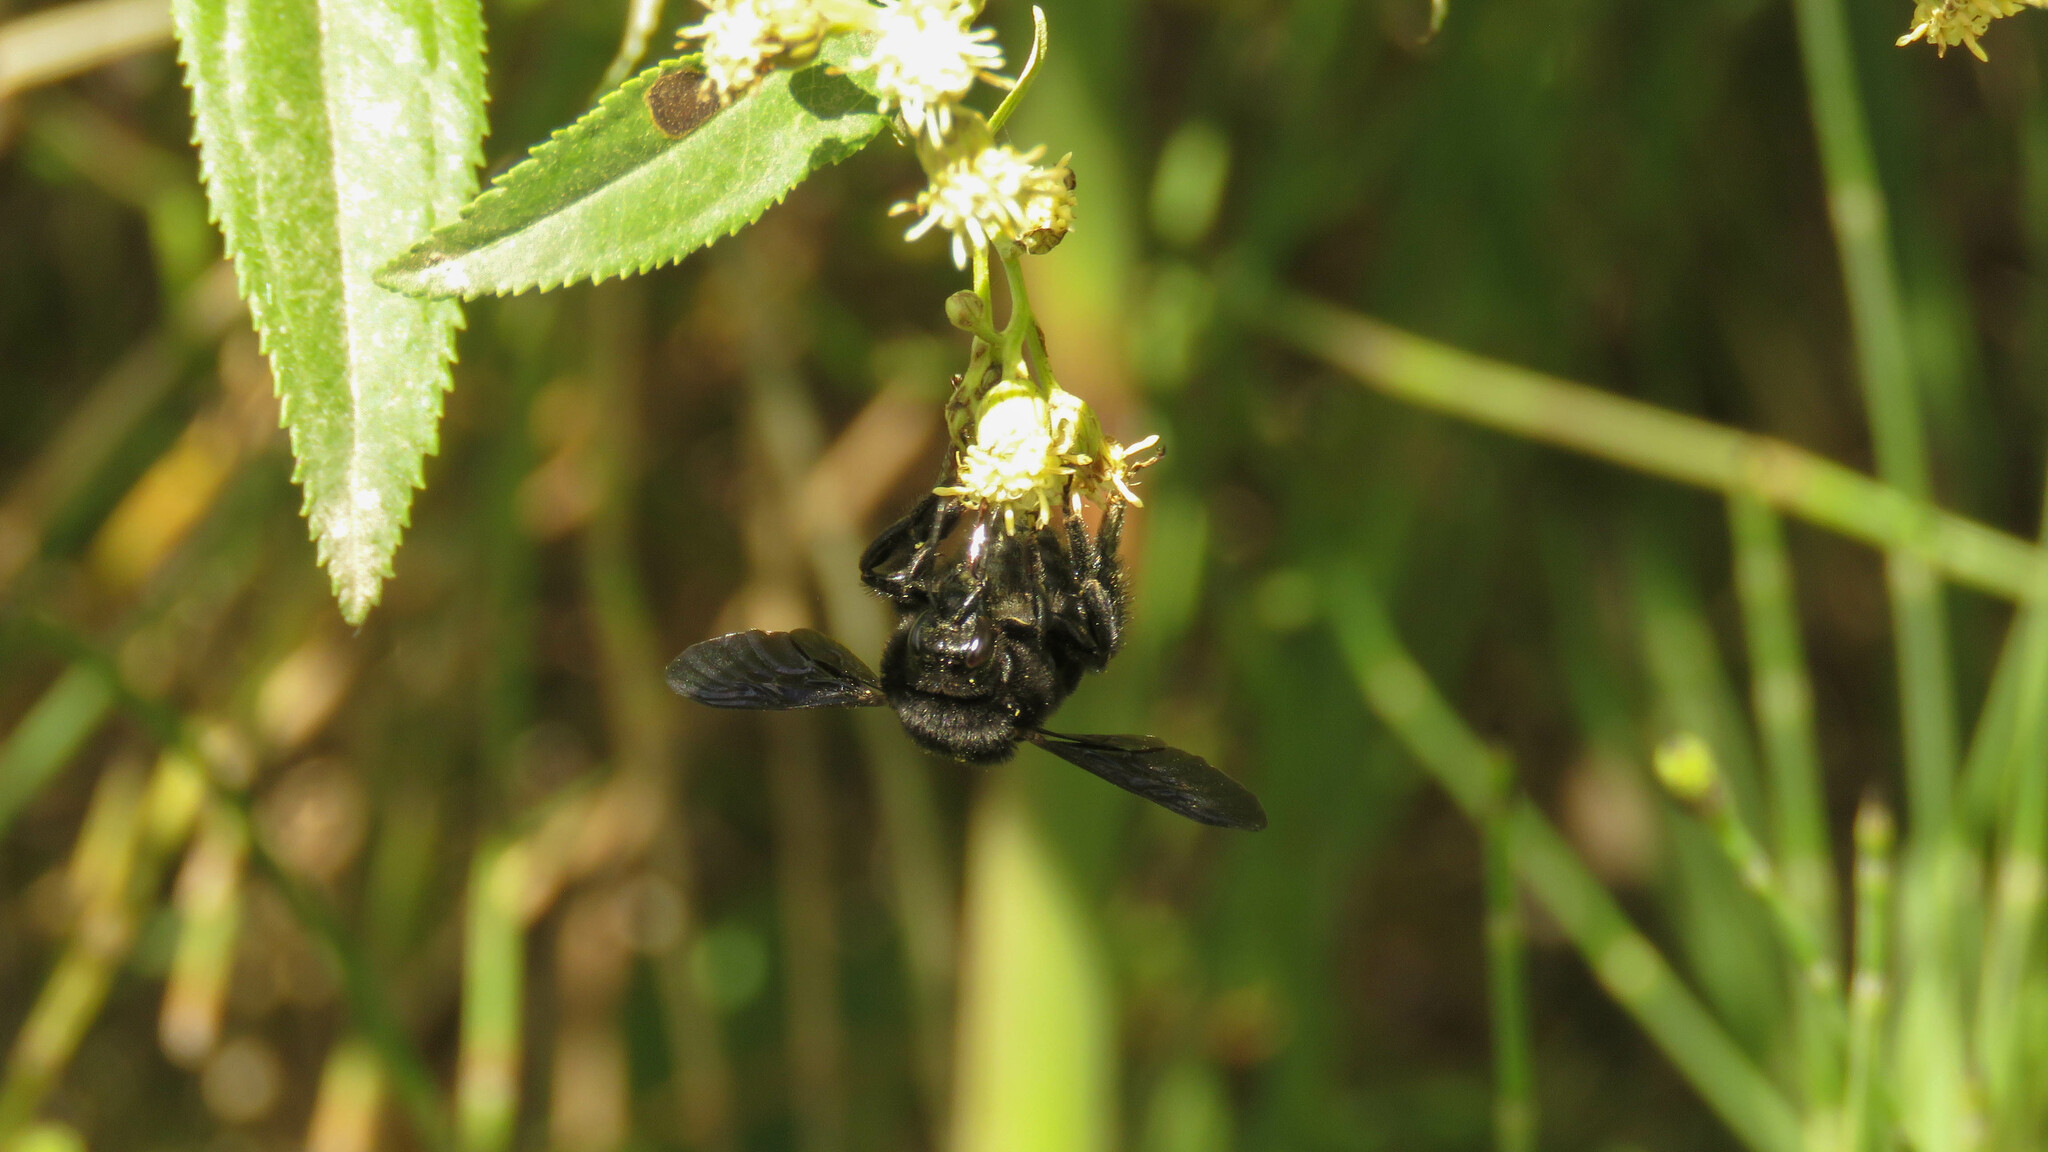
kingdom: Animalia
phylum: Arthropoda
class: Insecta
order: Hymenoptera
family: Apidae
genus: Bombus
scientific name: Bombus pauloensis
